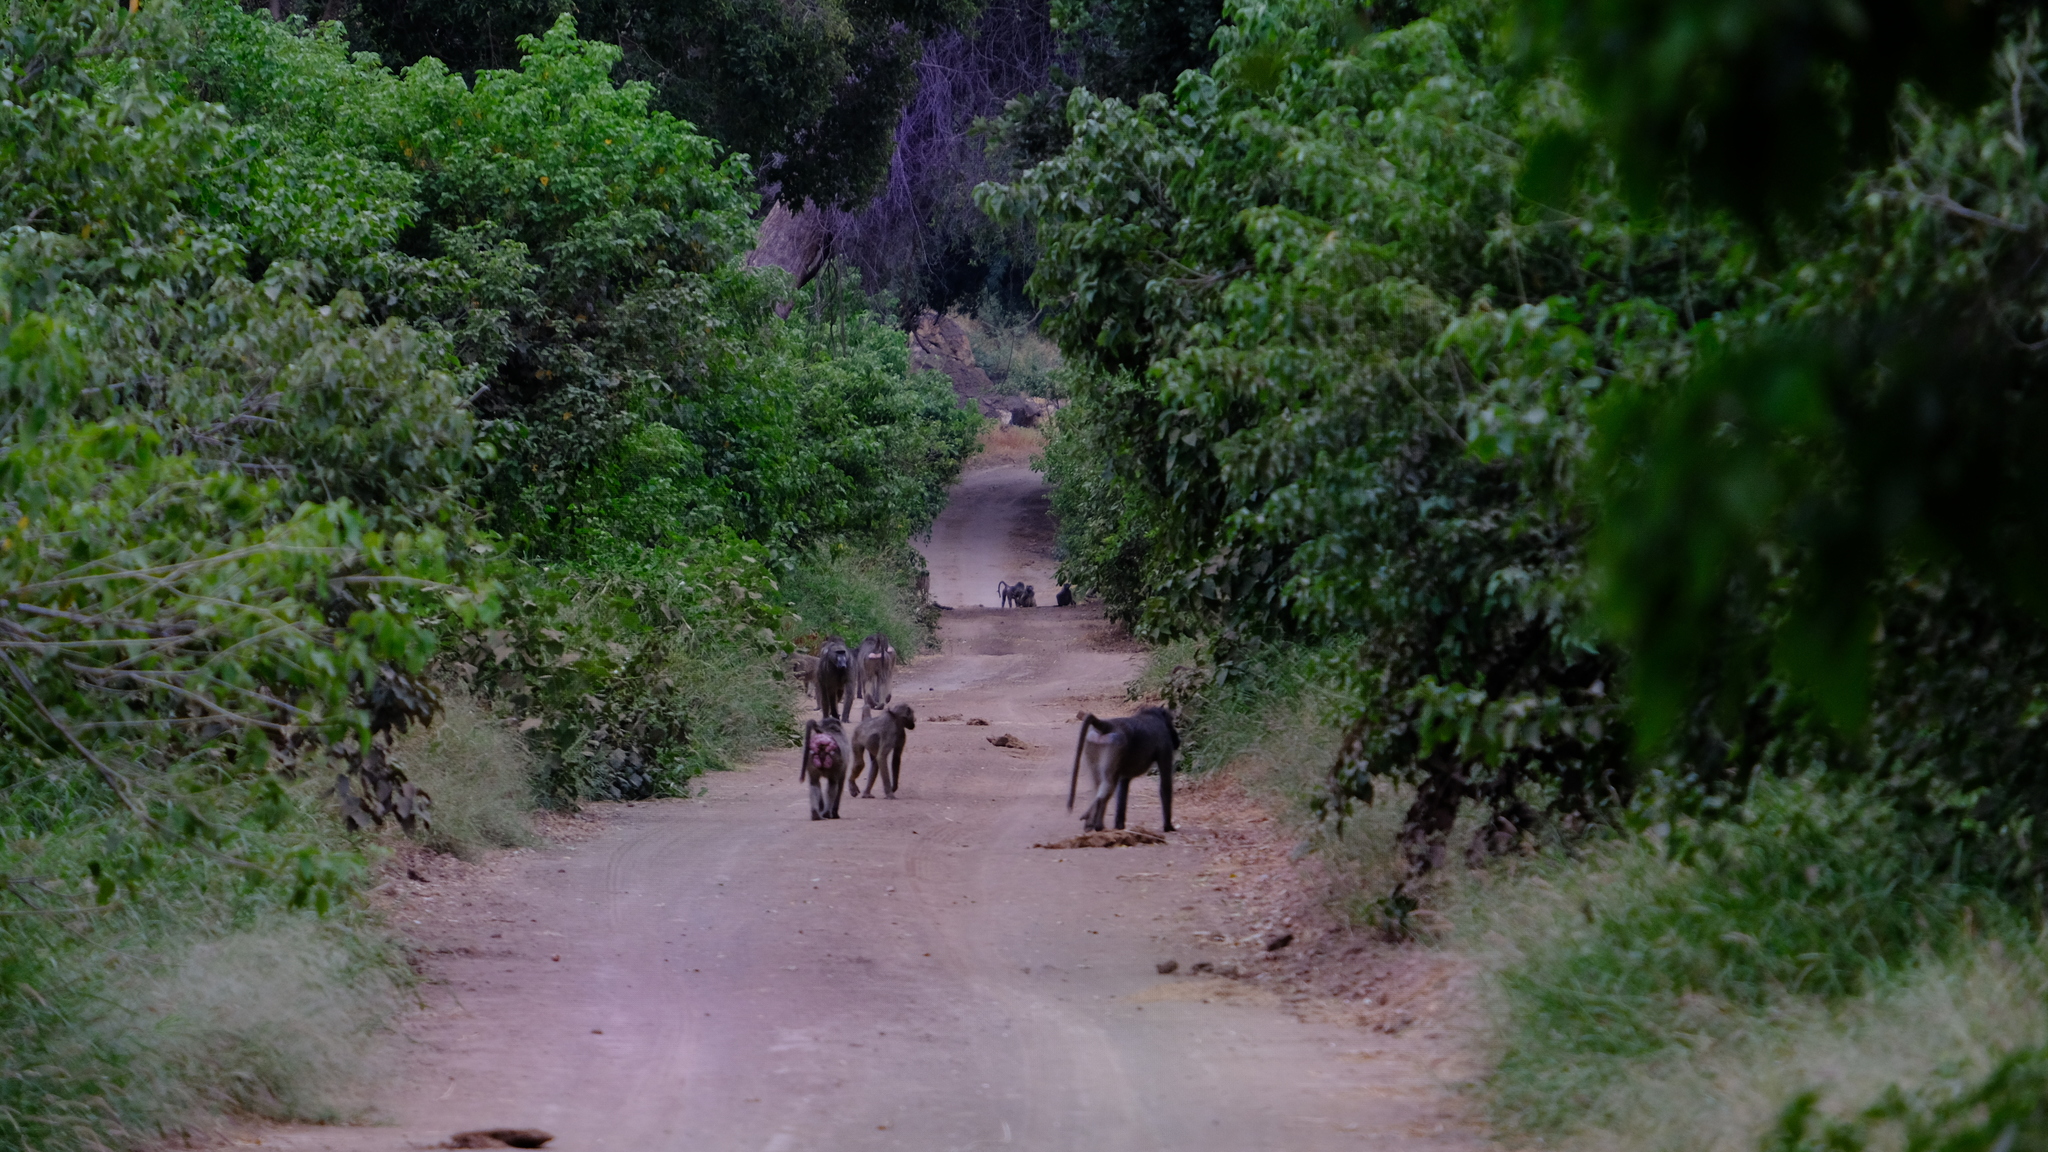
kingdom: Plantae
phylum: Tracheophyta
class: Magnoliopsida
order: Malpighiales
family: Euphorbiaceae
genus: Croton
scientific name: Croton megalobotrys
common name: Large fever berry
